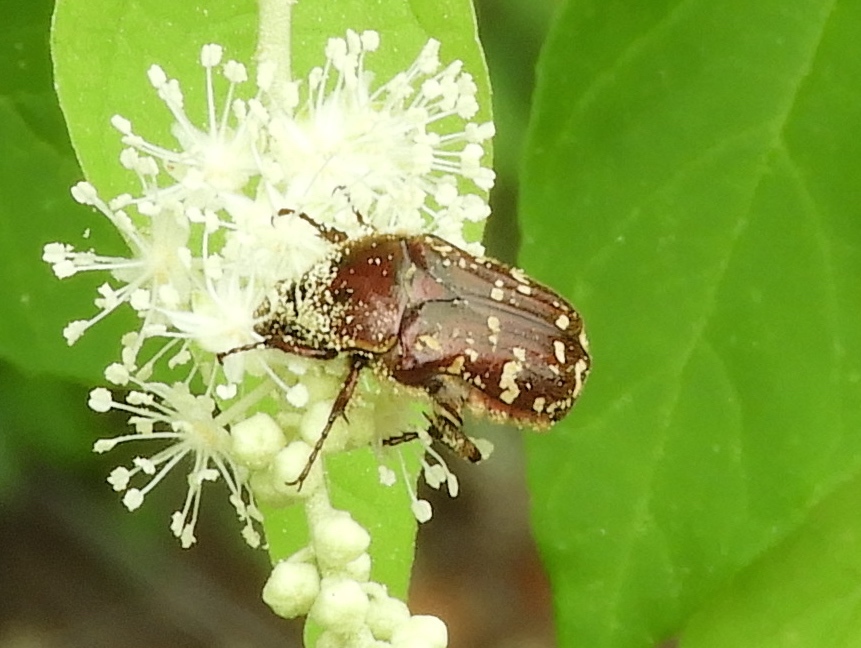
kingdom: Animalia
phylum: Arthropoda
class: Insecta
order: Coleoptera
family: Scarabaeidae
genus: Euphoria
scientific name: Euphoria leucographa
